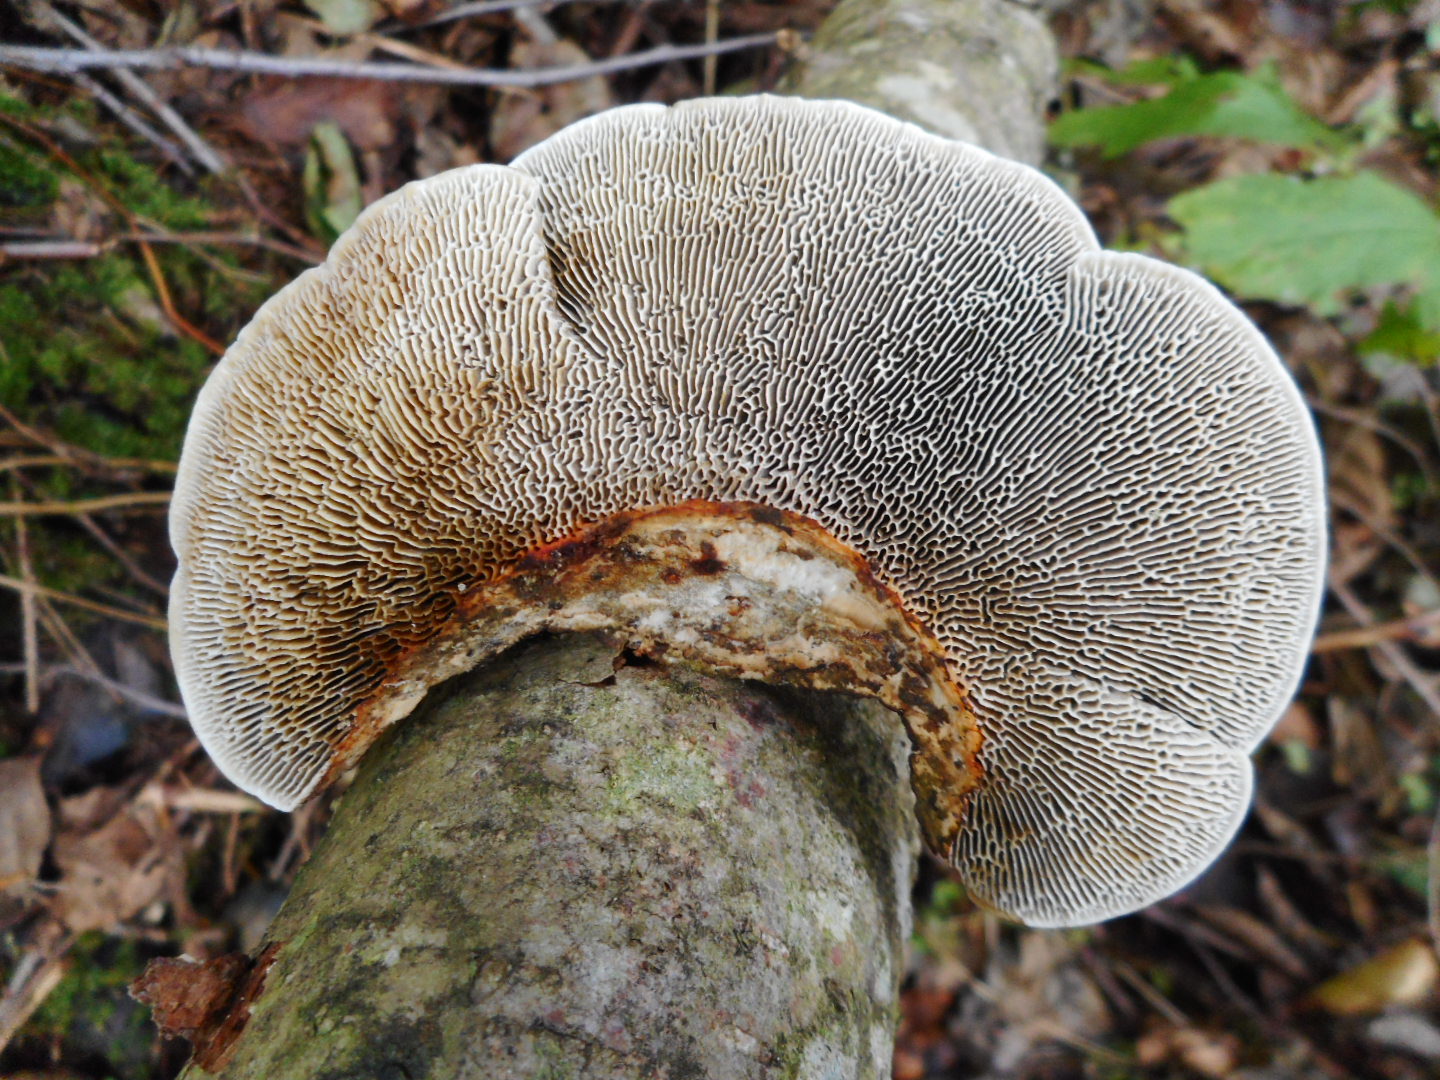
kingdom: Fungi
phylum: Basidiomycota
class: Agaricomycetes
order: Polyporales
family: Polyporaceae
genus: Daedaleopsis
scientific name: Daedaleopsis confragosa
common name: Blushing bracket
